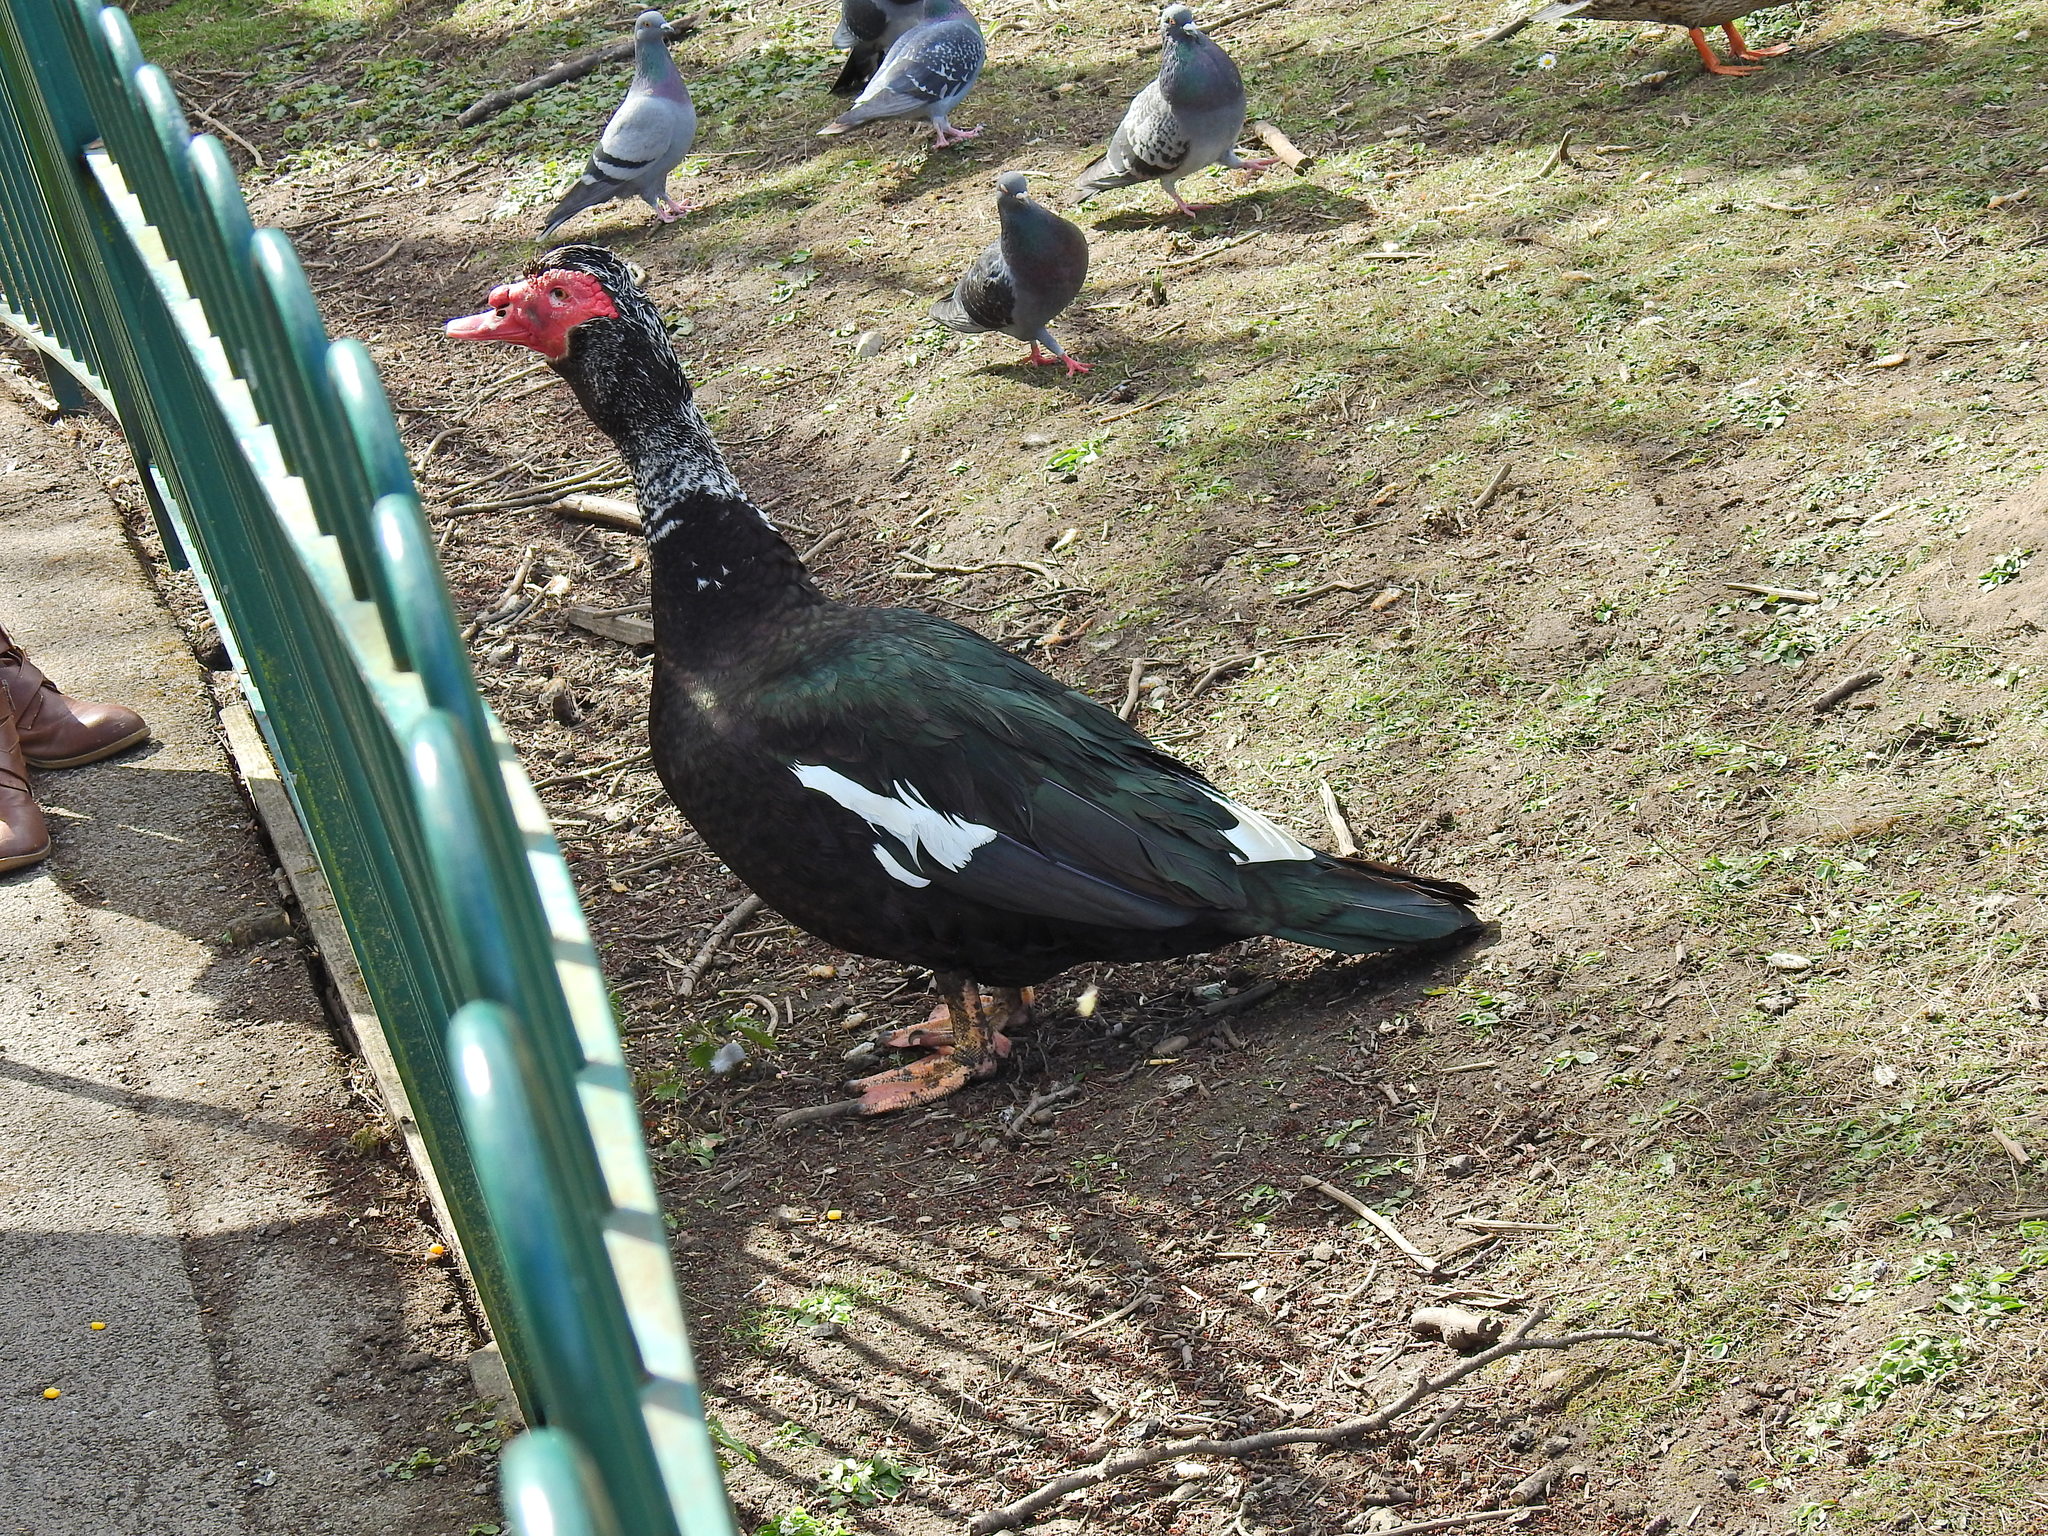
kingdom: Animalia
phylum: Chordata
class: Aves
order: Anseriformes
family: Anatidae
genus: Cairina
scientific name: Cairina moschata
